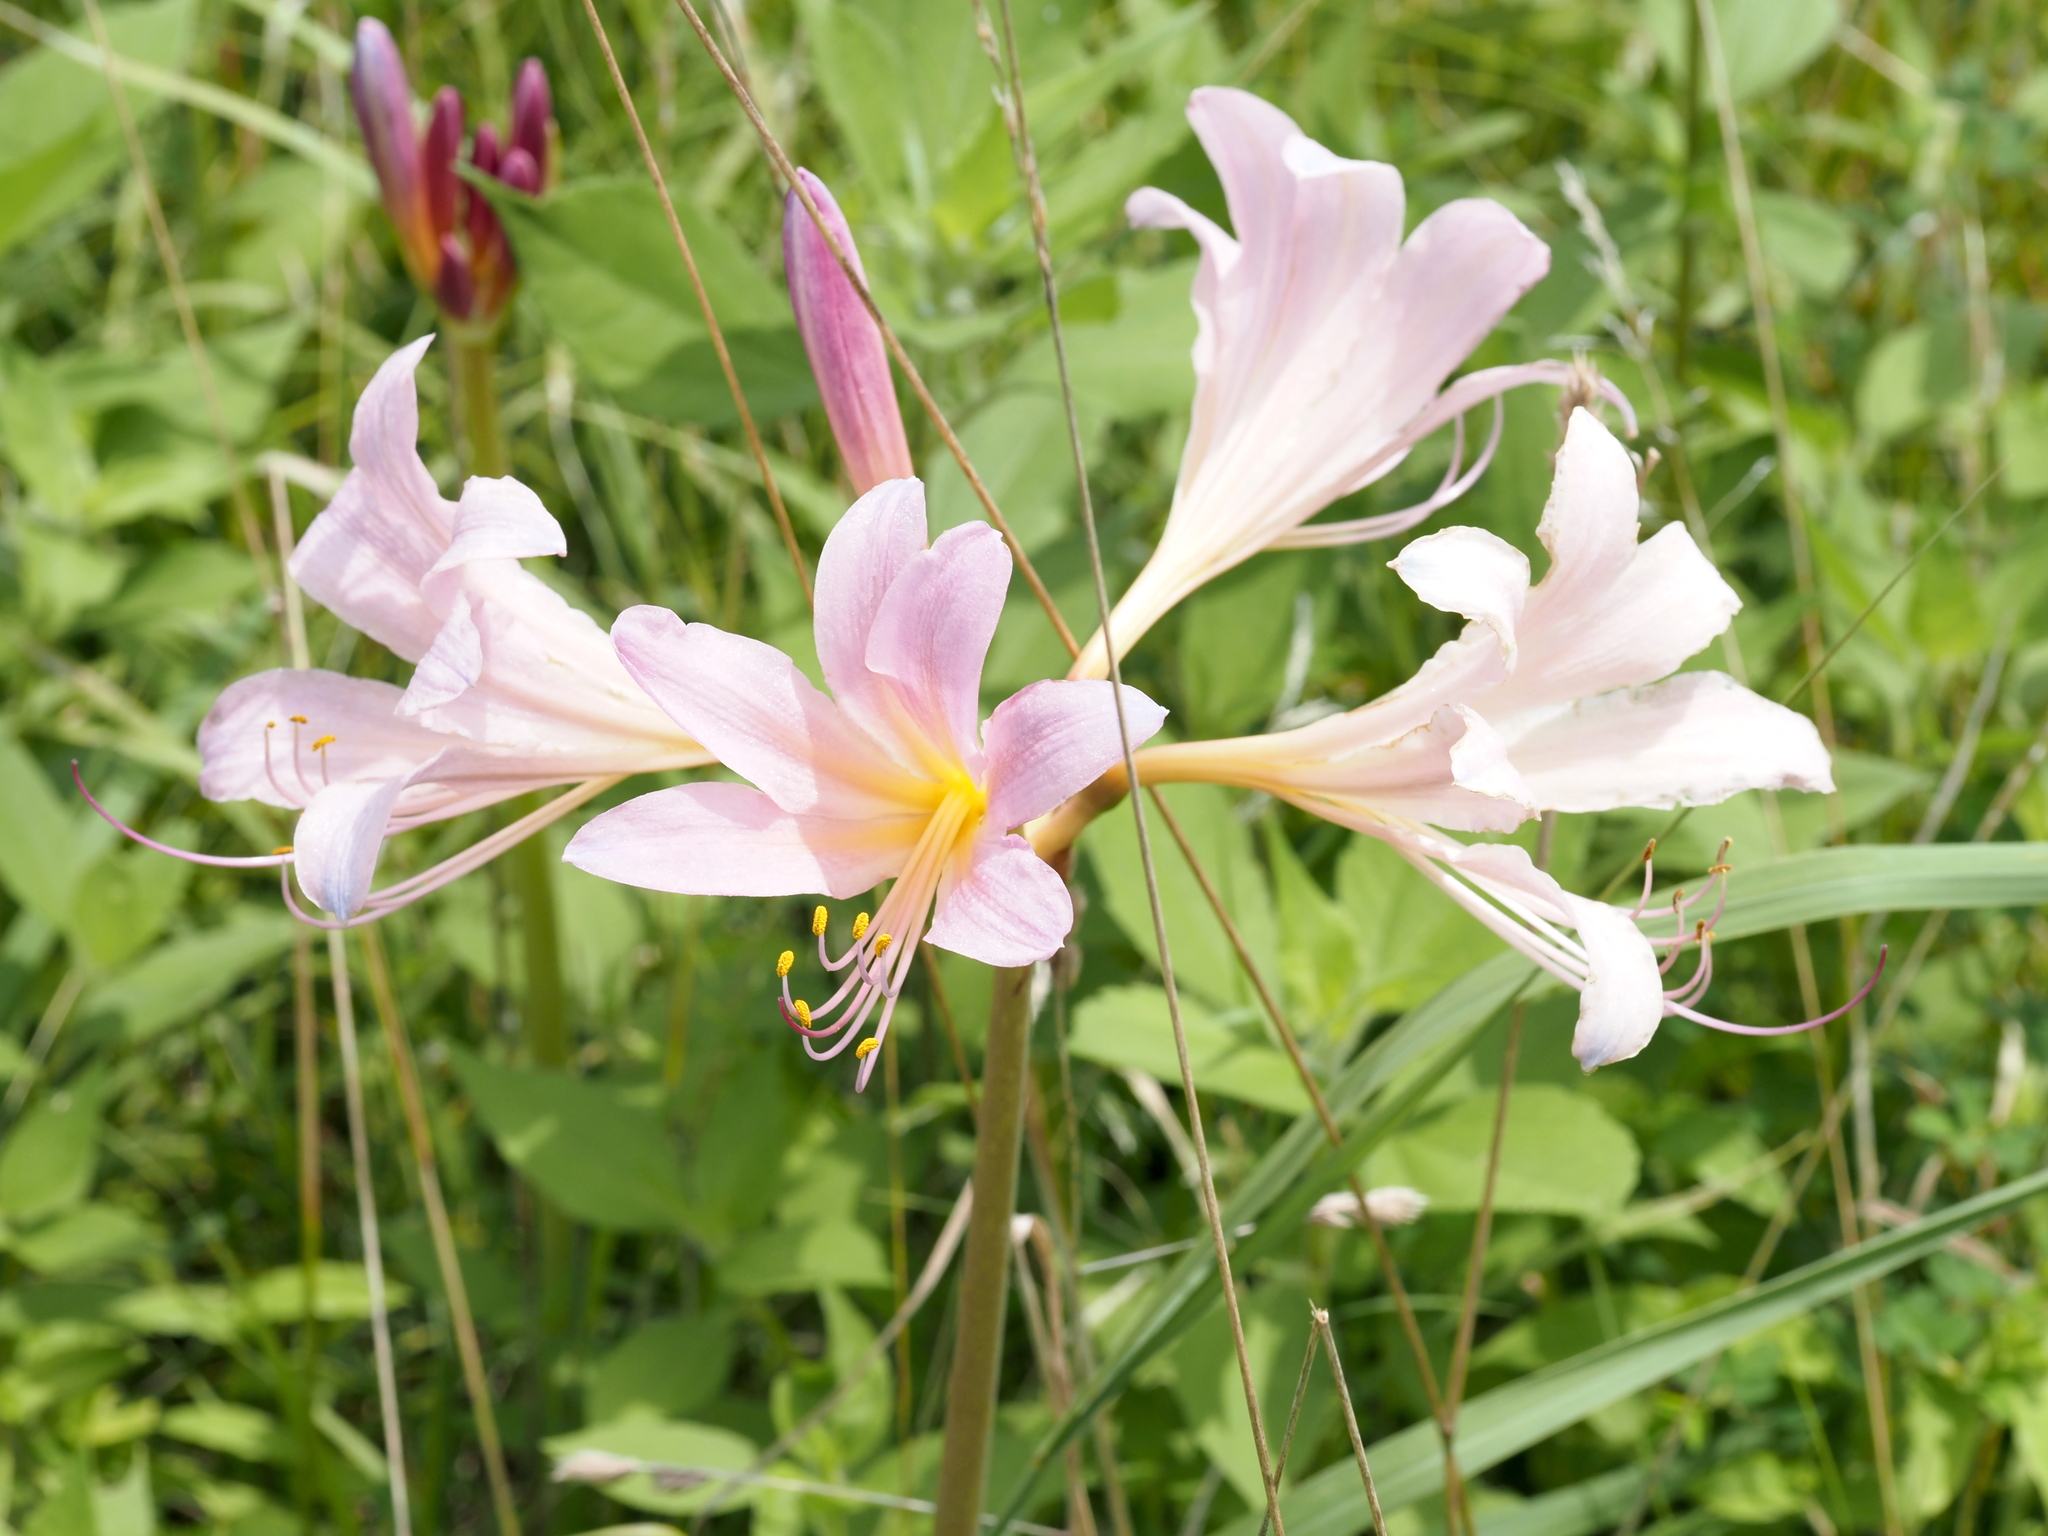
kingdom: Plantae
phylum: Tracheophyta
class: Liliopsida
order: Asparagales
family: Amaryllidaceae
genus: Lycoris
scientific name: Lycoris squamigera
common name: Magic-lily
